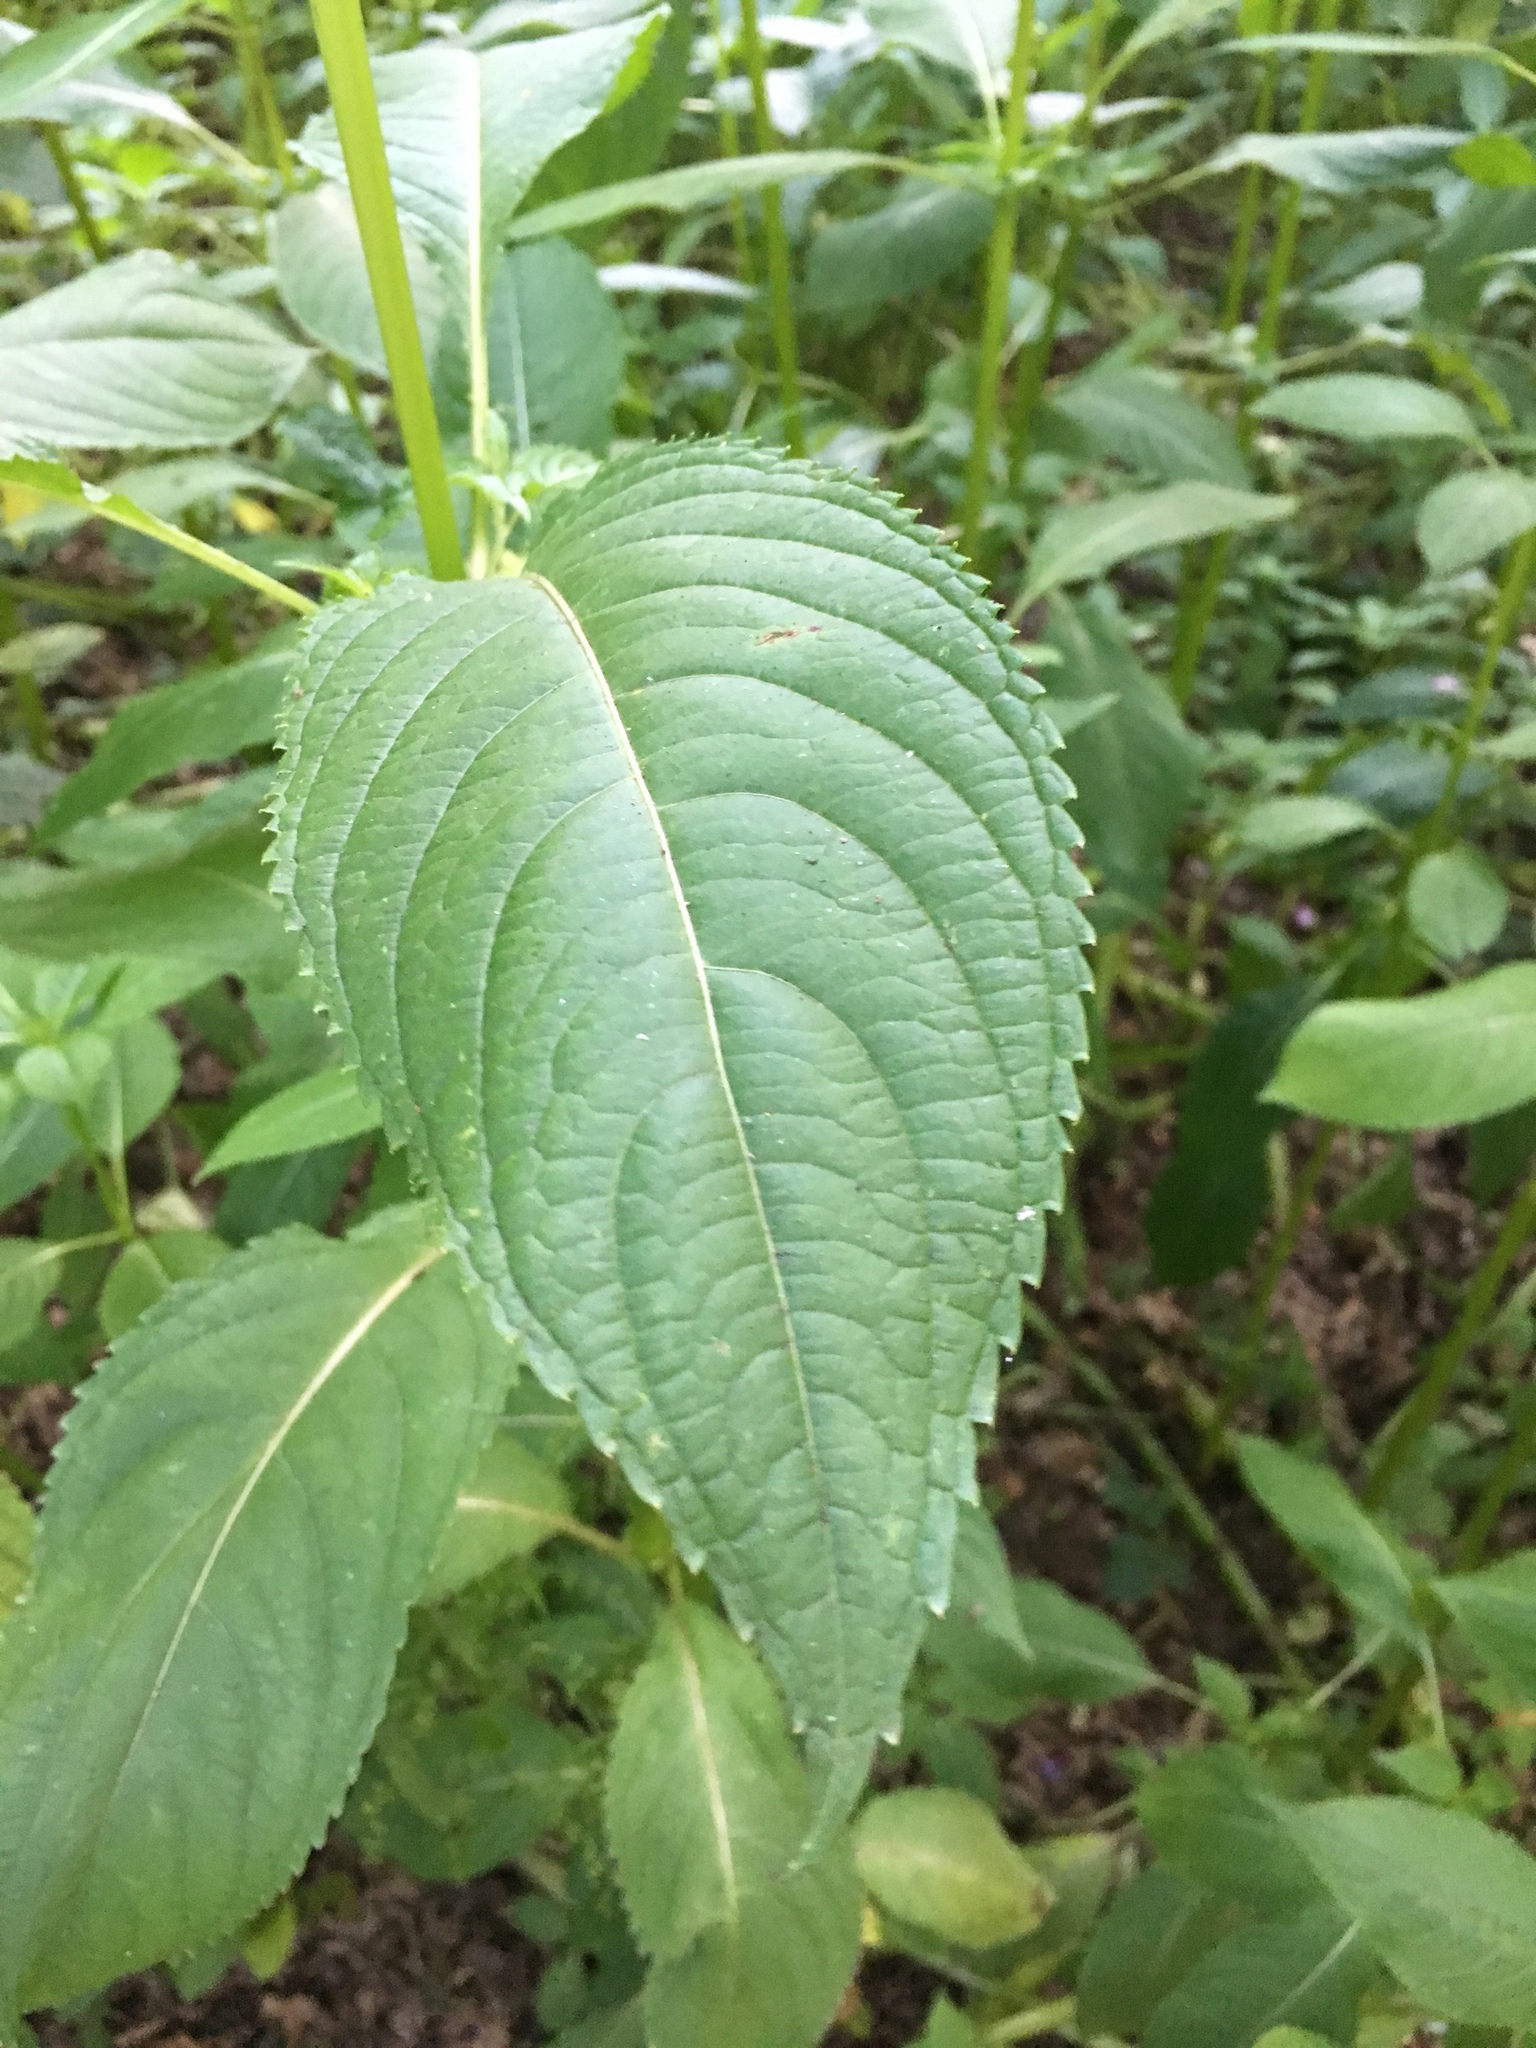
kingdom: Plantae
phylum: Tracheophyta
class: Magnoliopsida
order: Ericales
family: Balsaminaceae
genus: Impatiens
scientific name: Impatiens glandulifera
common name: Himalayan balsam
